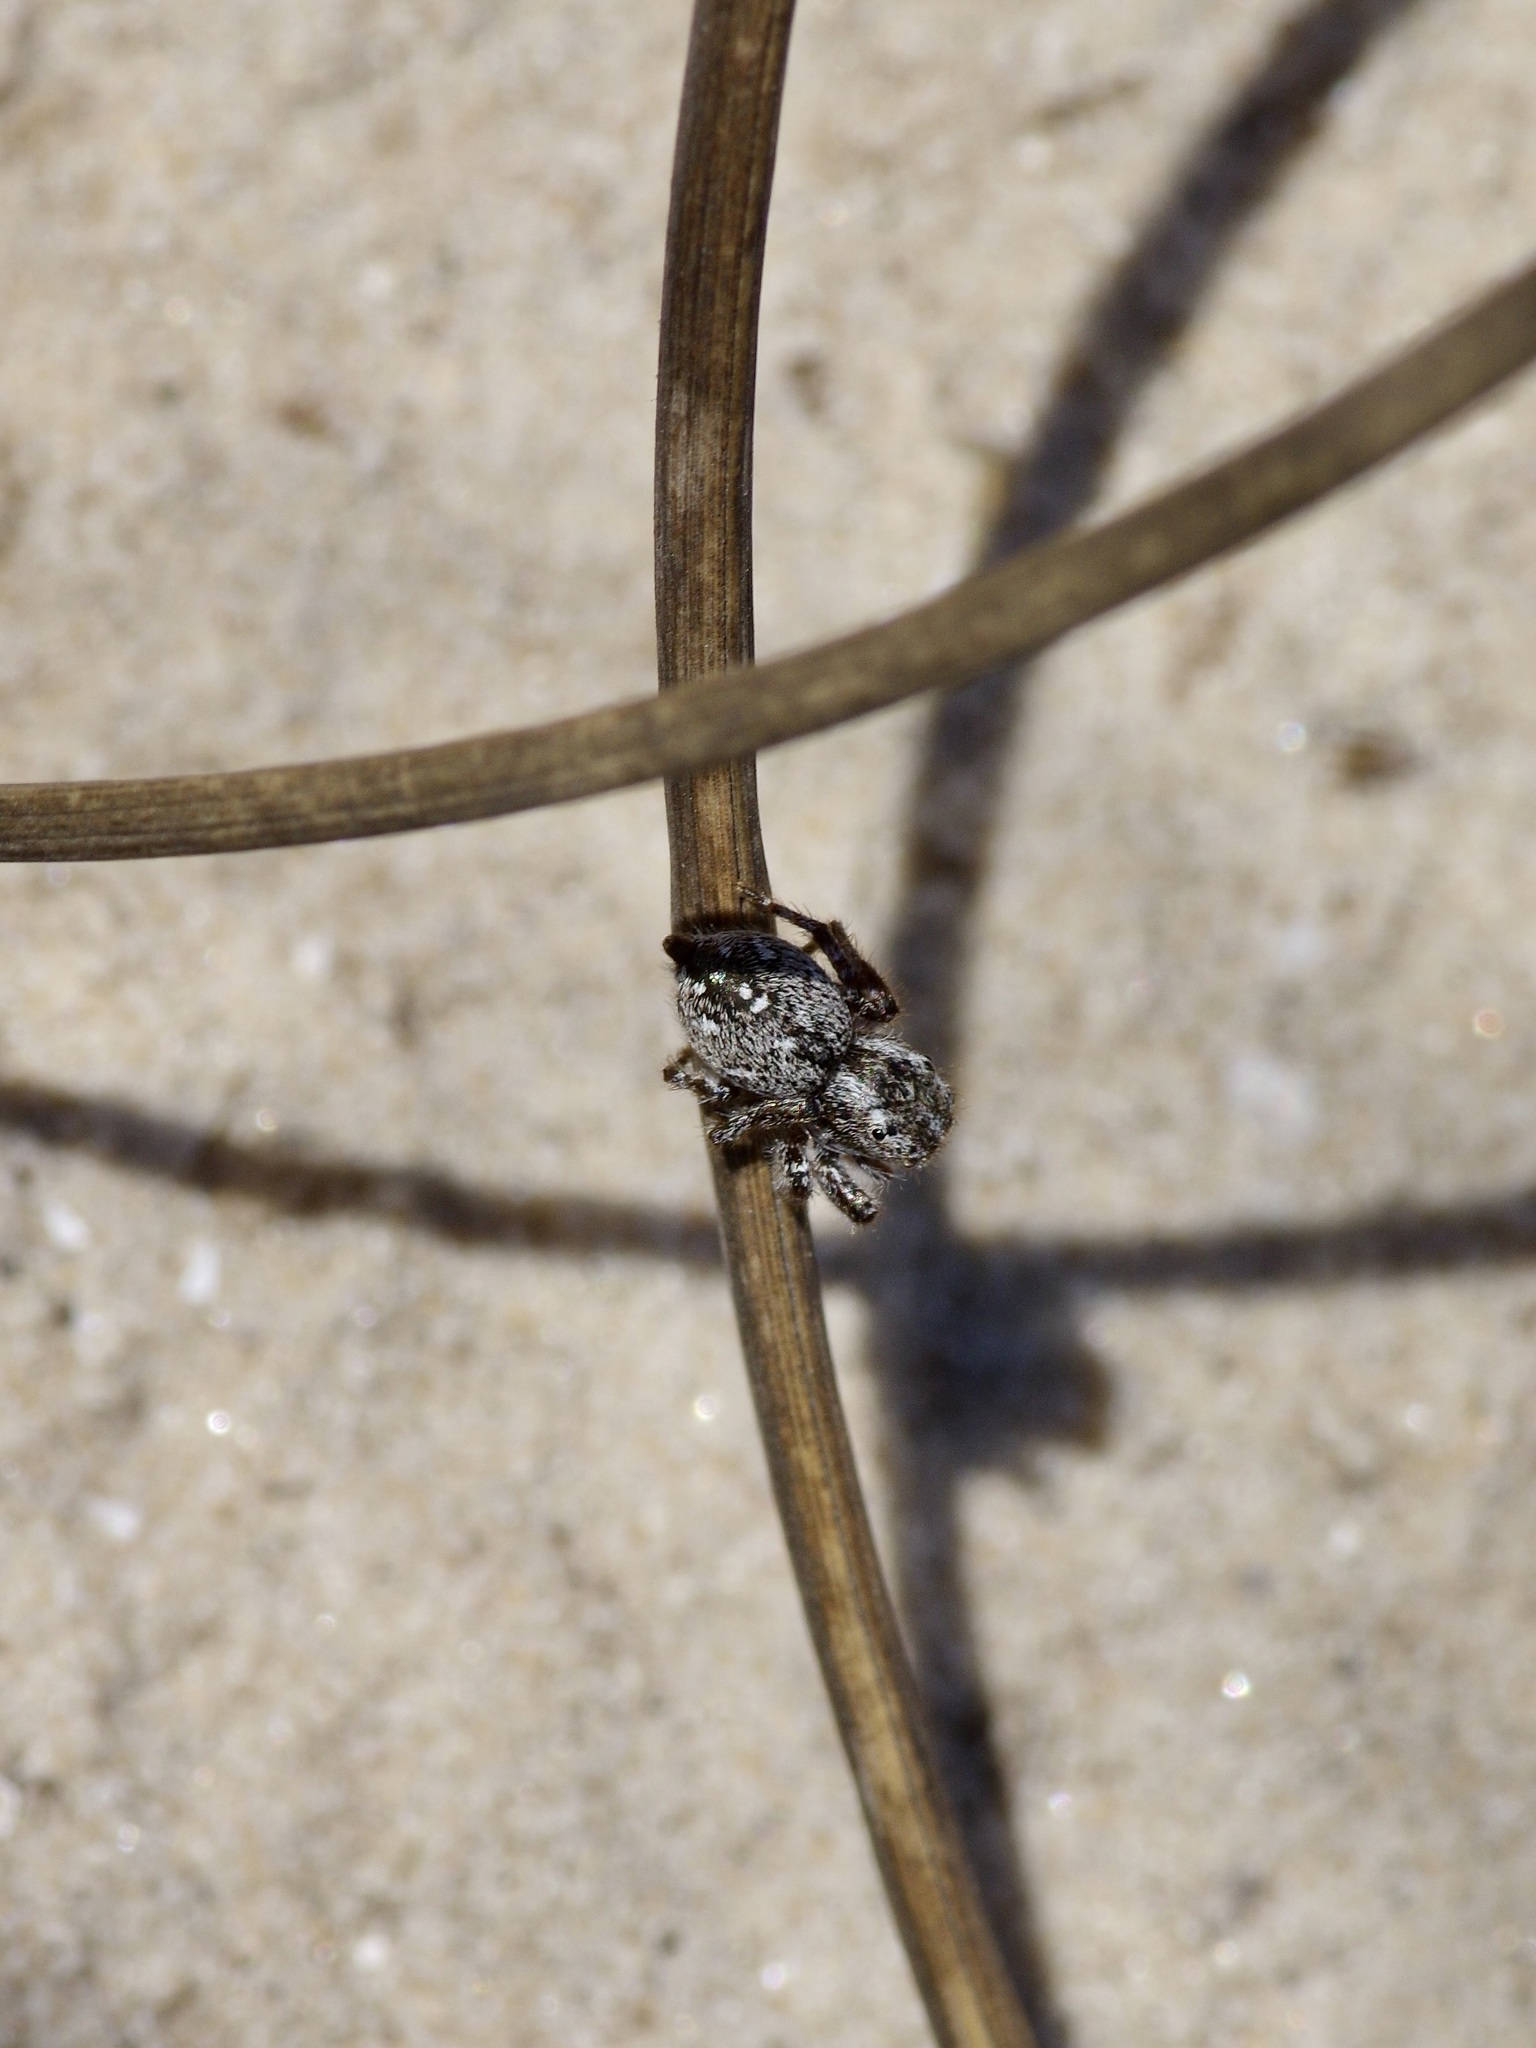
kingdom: Animalia
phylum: Arthropoda
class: Arachnida
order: Araneae
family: Salticidae
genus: Pelegrina
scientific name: Pelegrina galathea
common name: Jumping spiders
